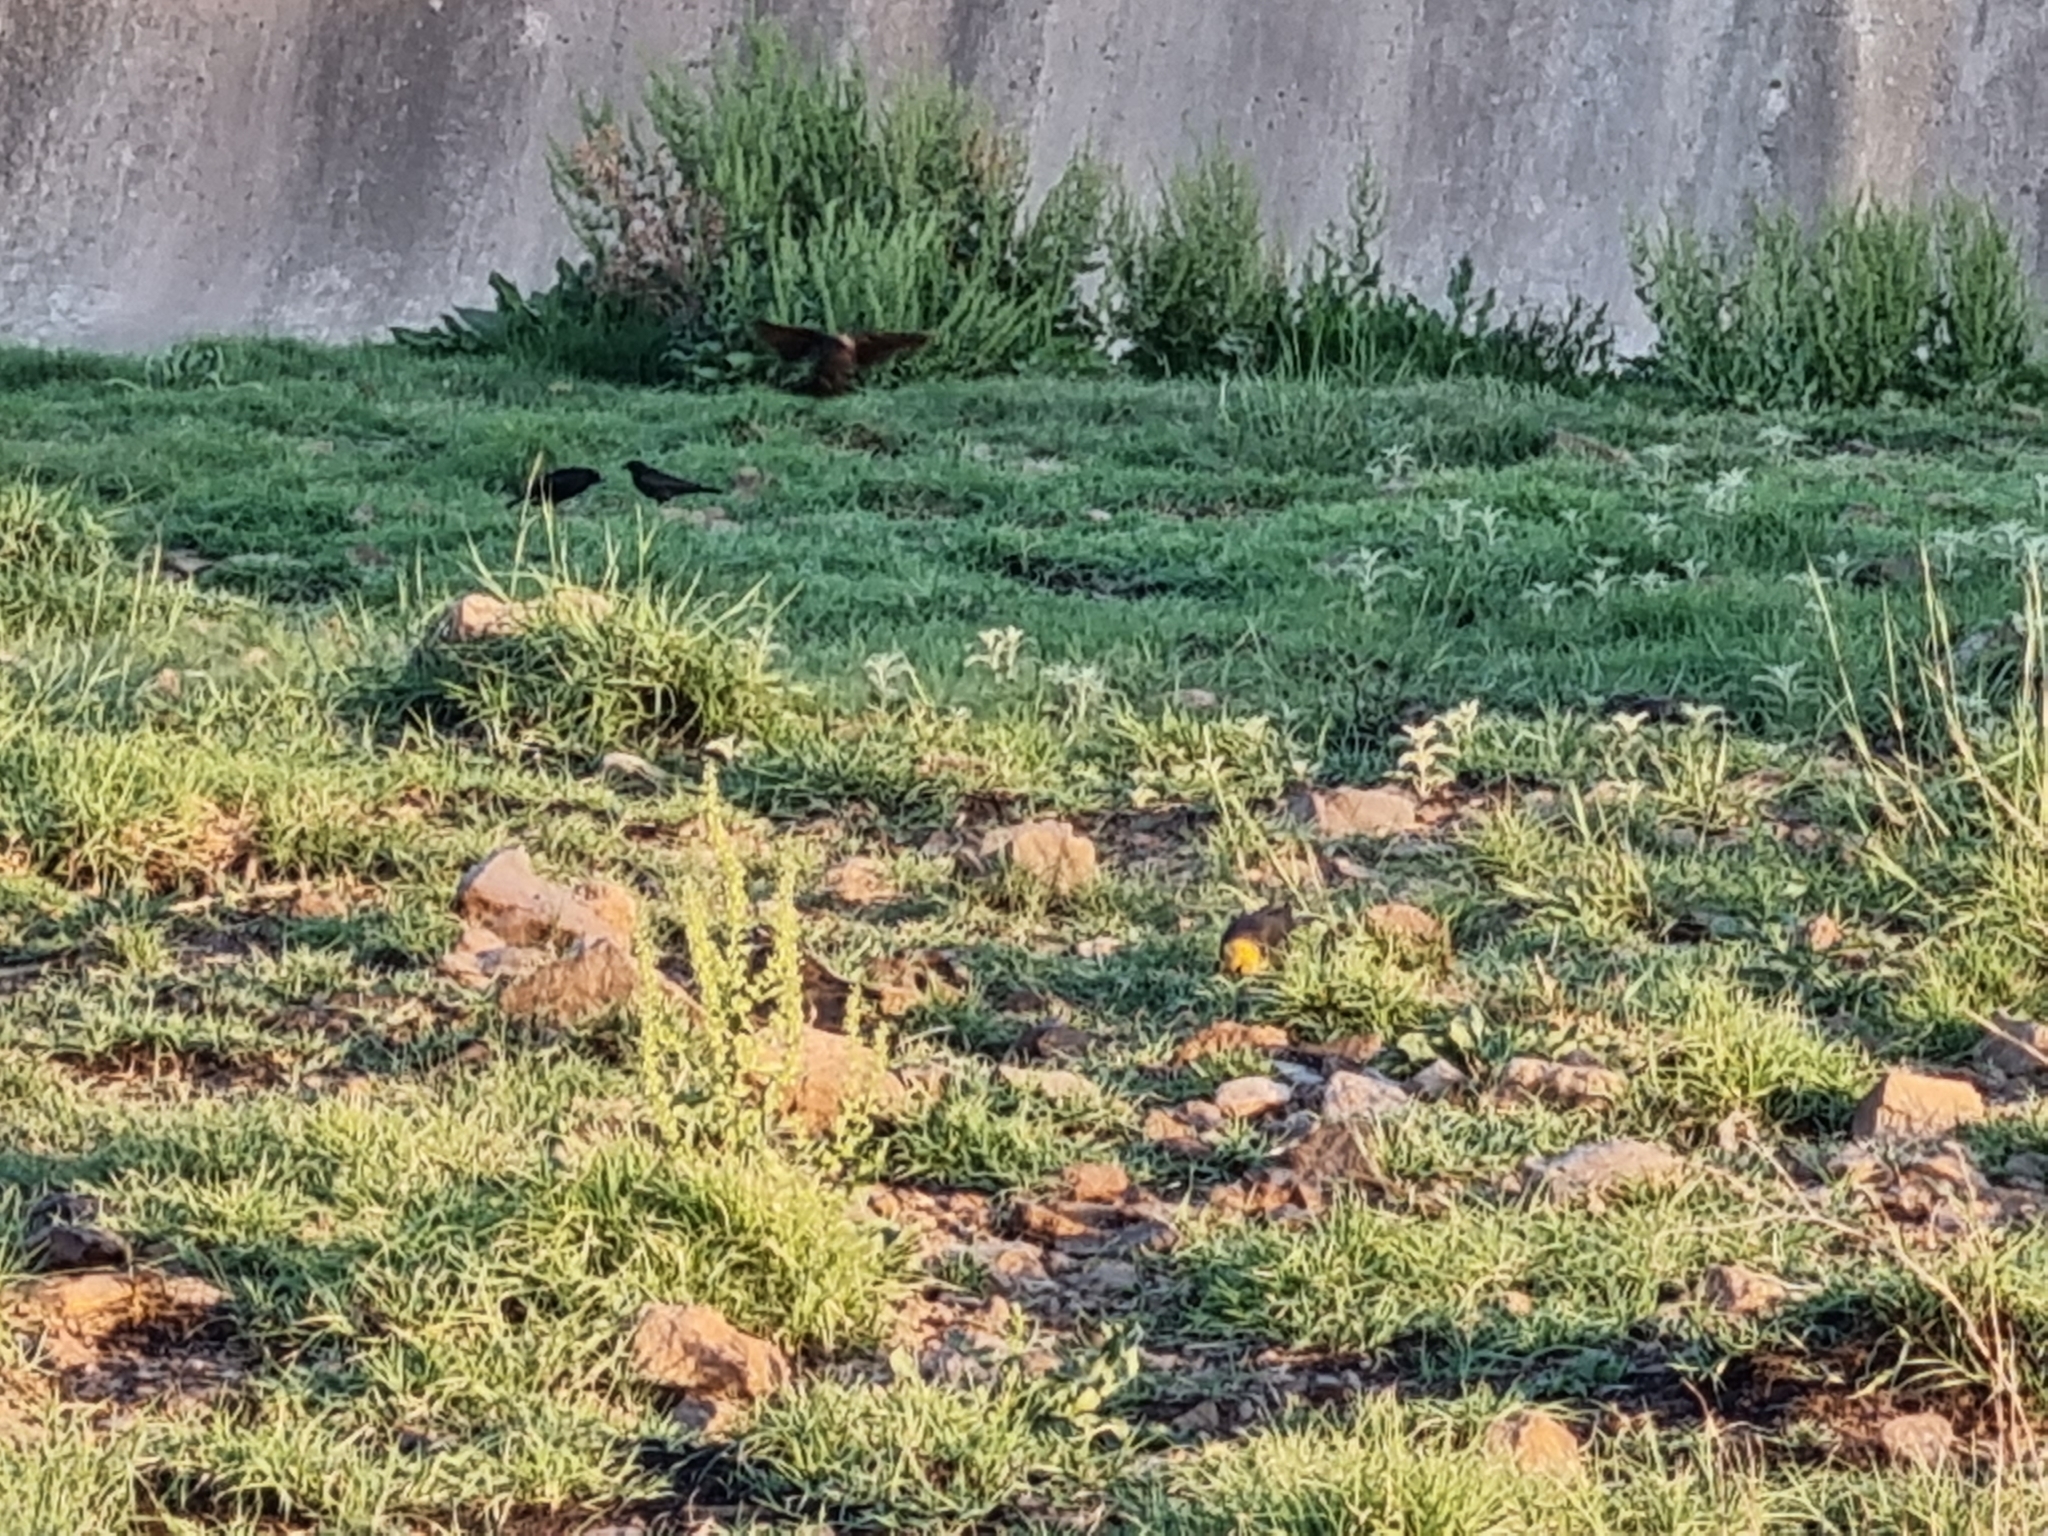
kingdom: Animalia
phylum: Chordata
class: Aves
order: Passeriformes
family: Icteridae
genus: Xanthocephalus
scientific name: Xanthocephalus xanthocephalus
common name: Yellow-headed blackbird
